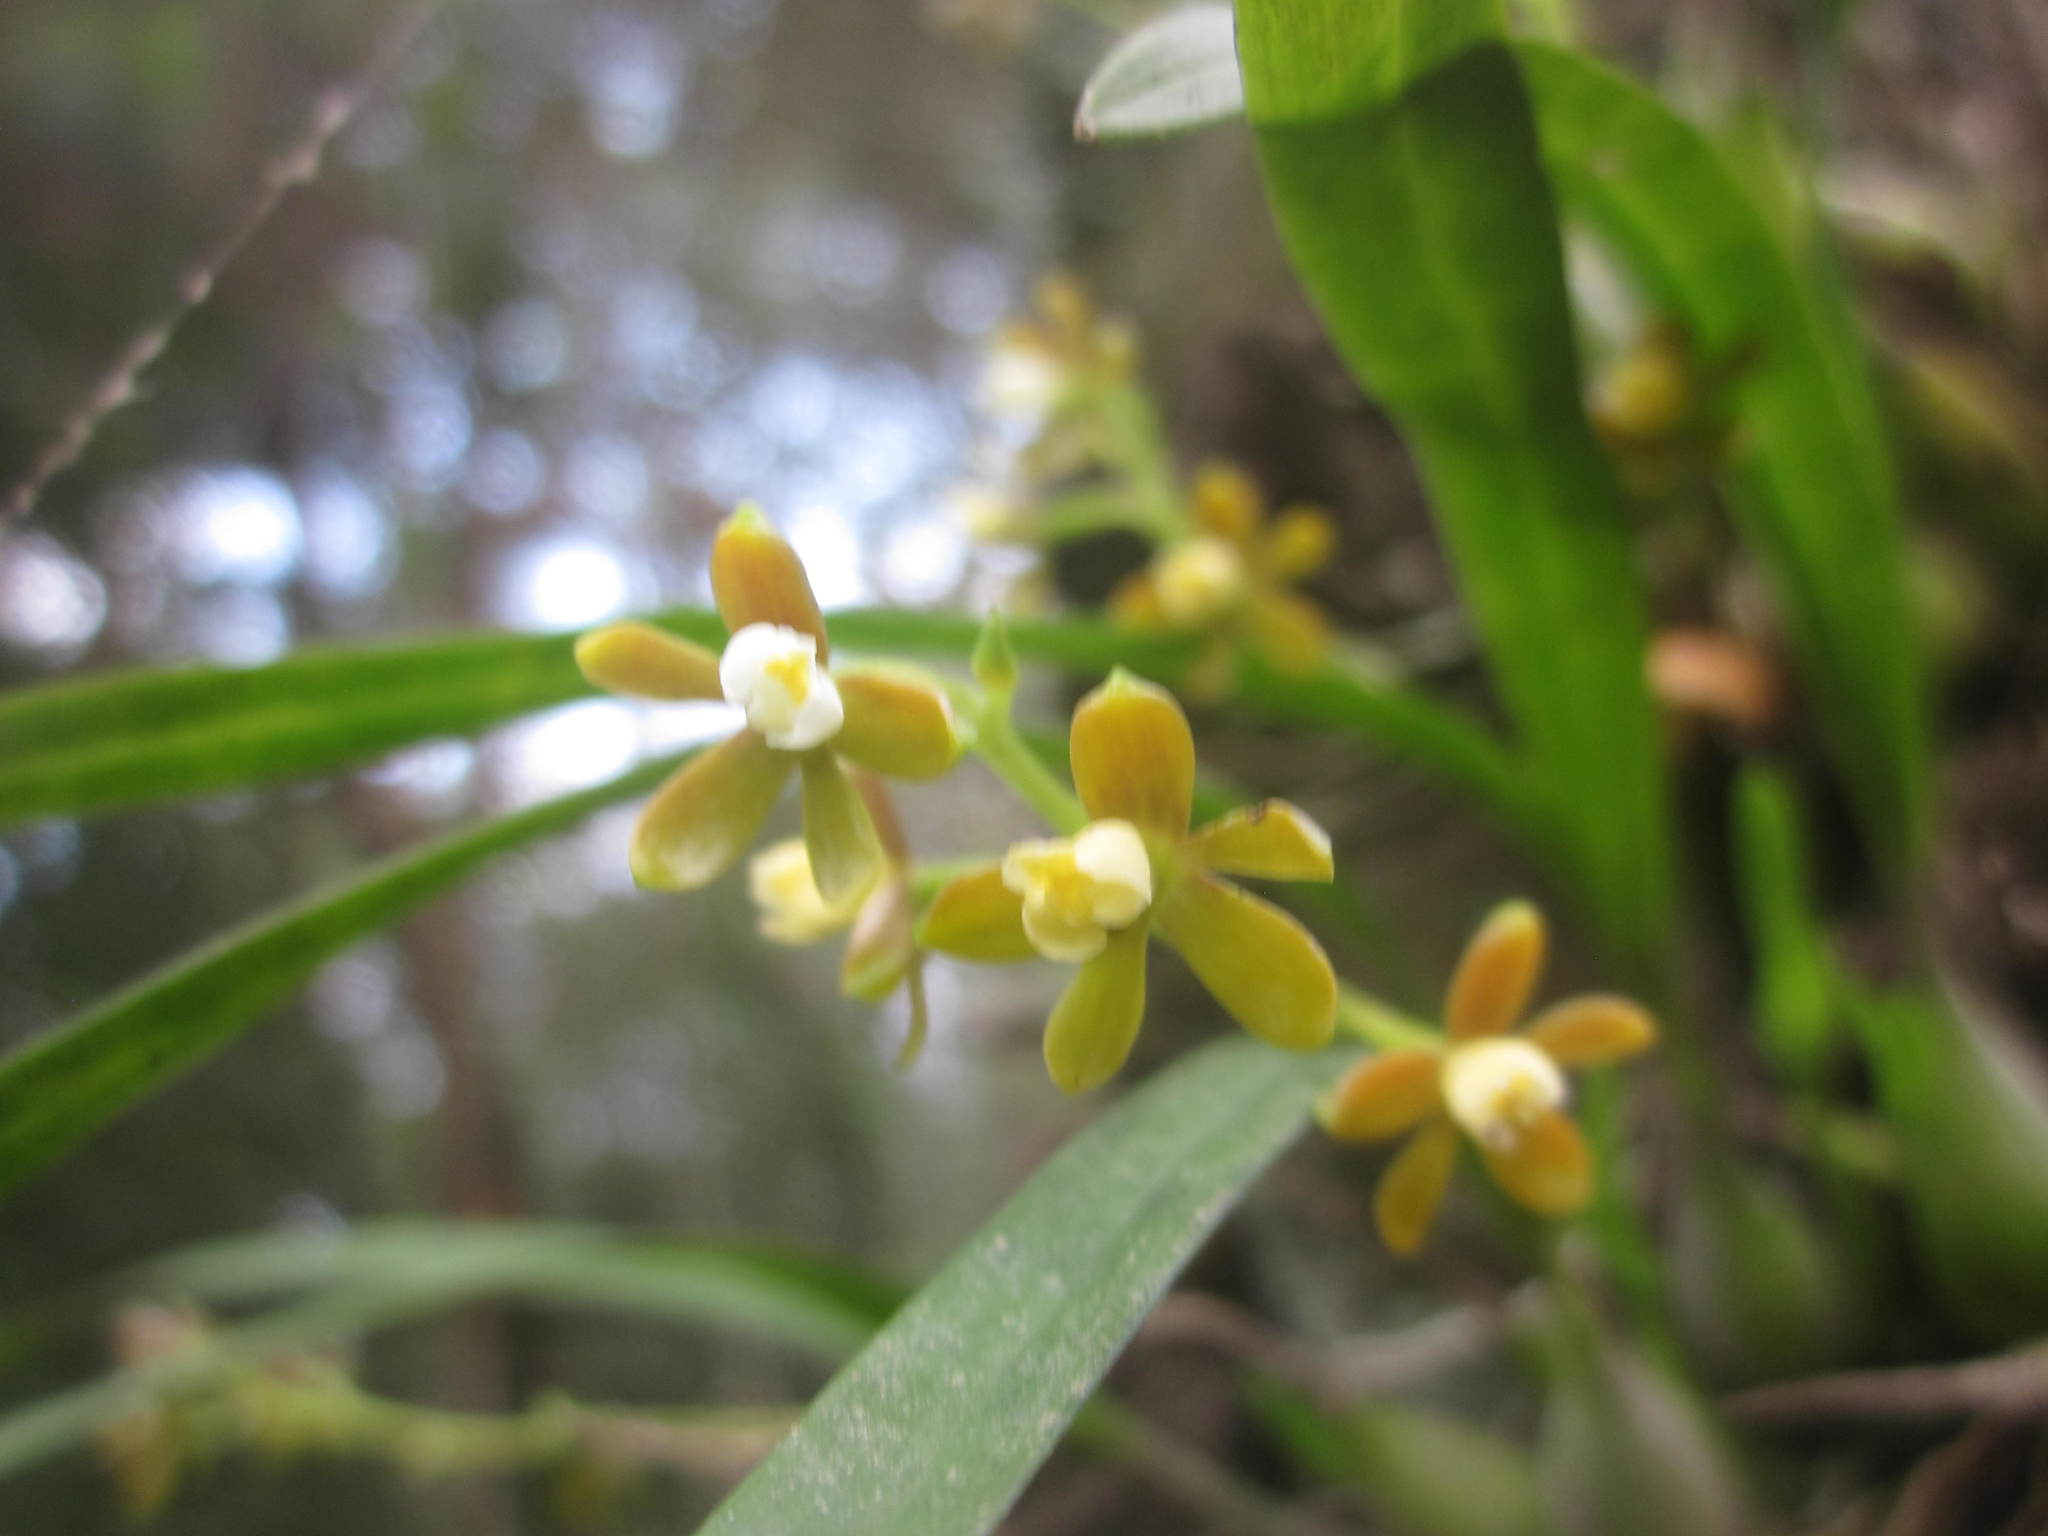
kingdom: Plantae
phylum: Tracheophyta
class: Liliopsida
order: Asparagales
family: Orchidaceae
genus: Prosthechea
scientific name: Prosthechea ochracea
